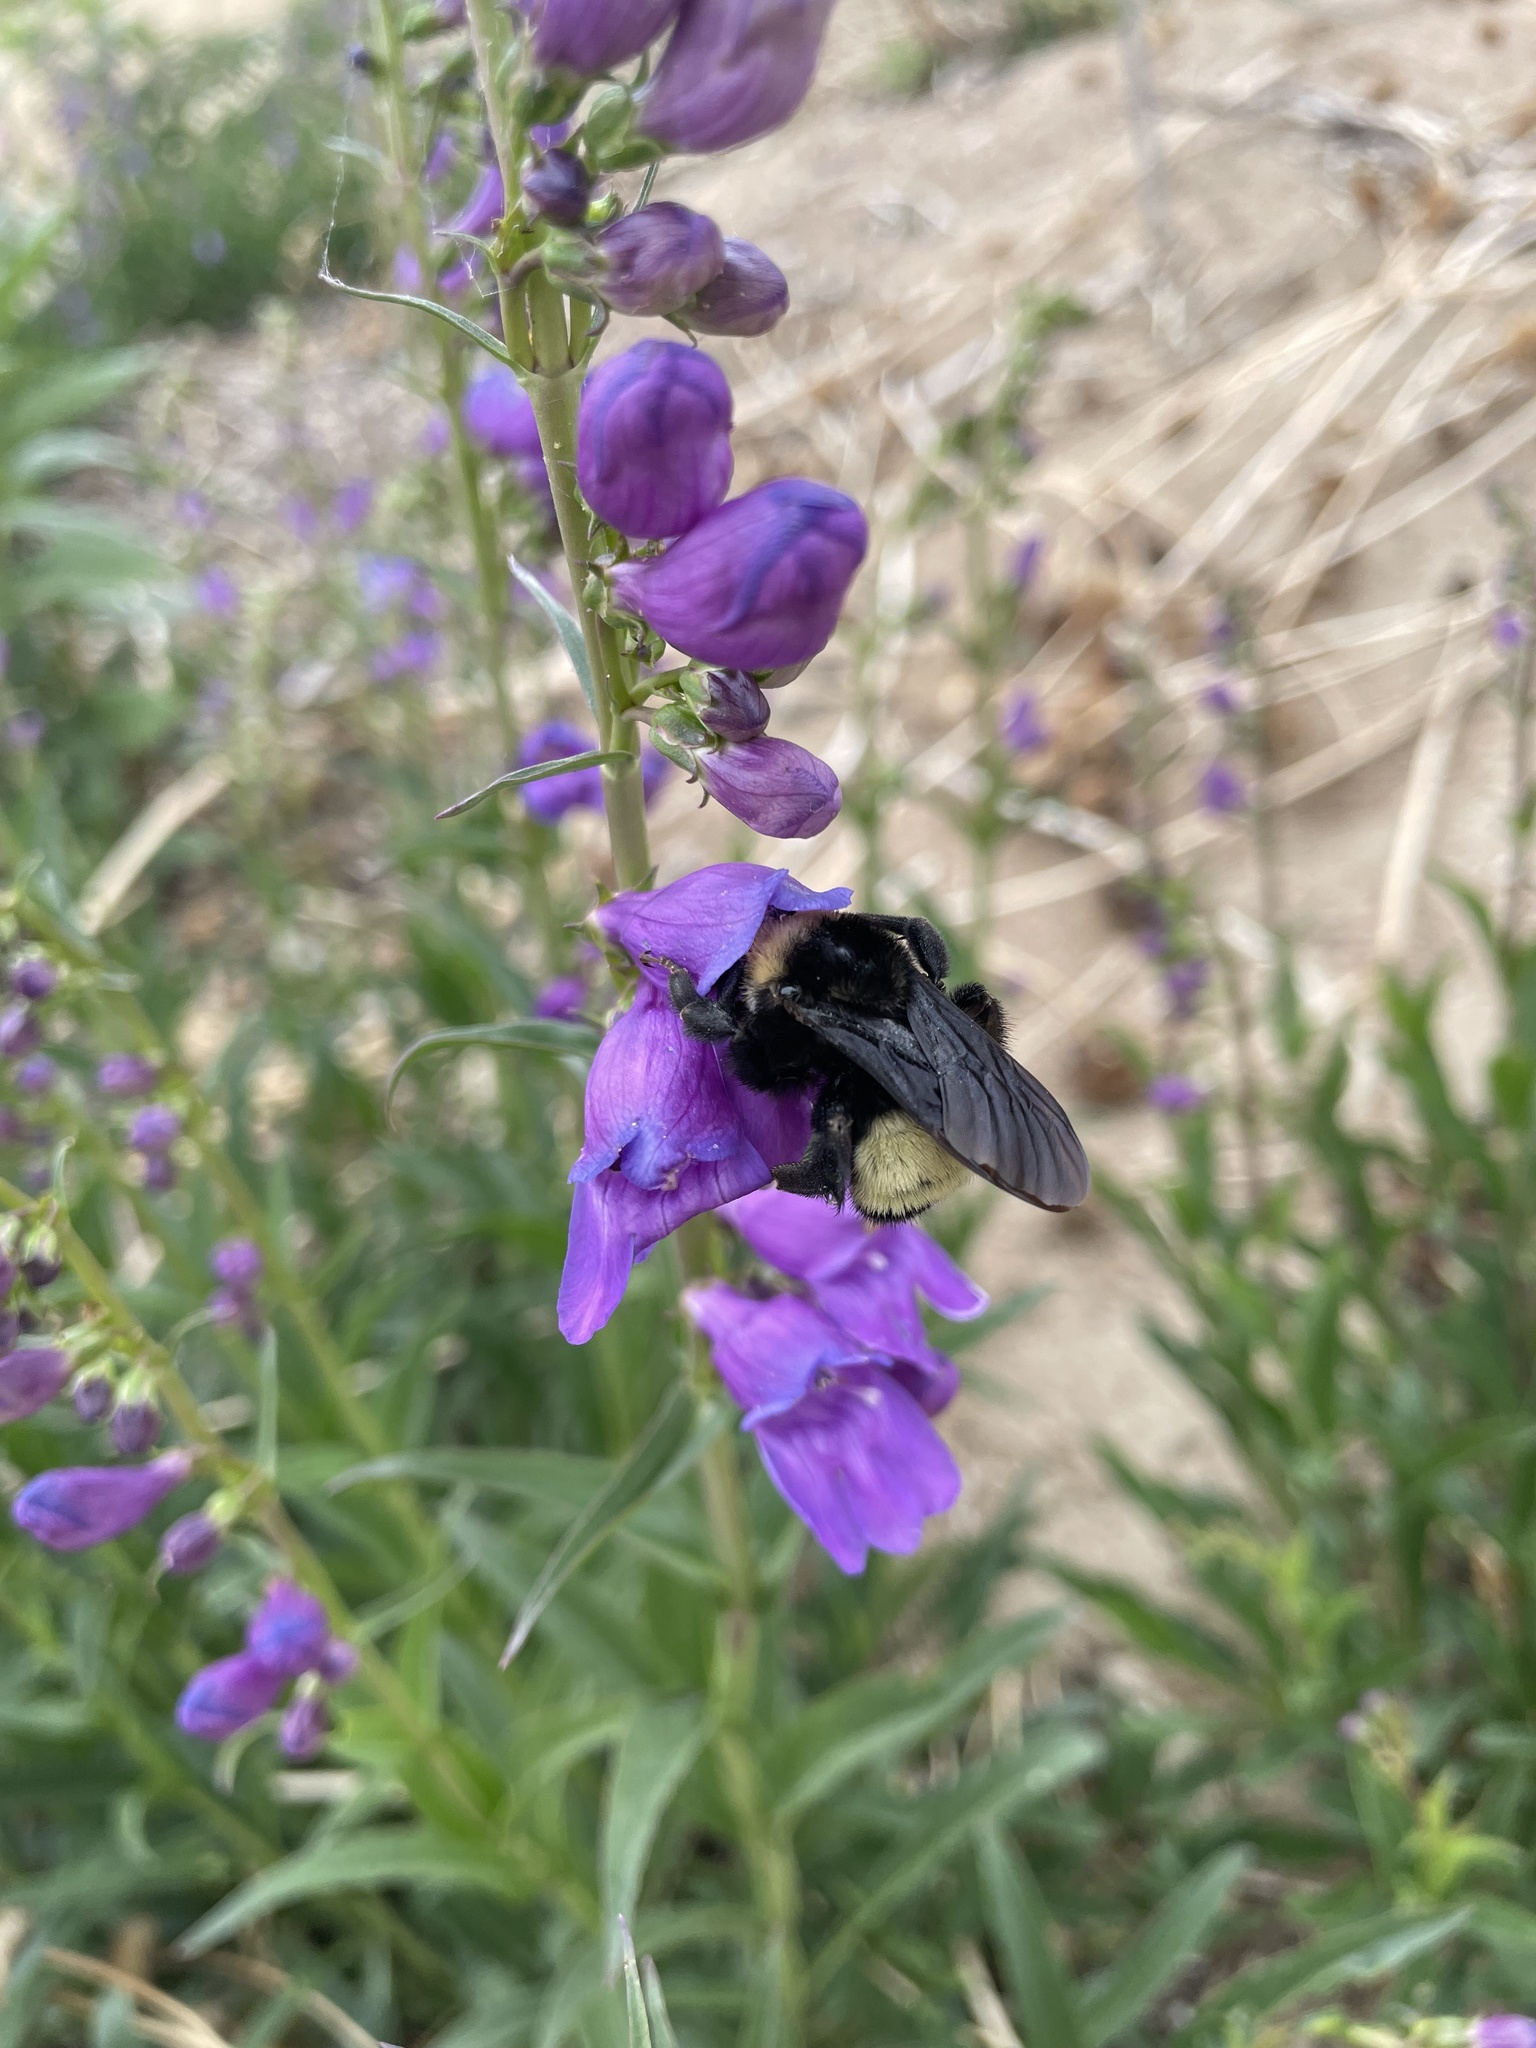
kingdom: Animalia
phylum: Arthropoda
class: Insecta
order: Hymenoptera
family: Apidae
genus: Bombus
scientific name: Bombus pensylvanicus
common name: Bumble bee
